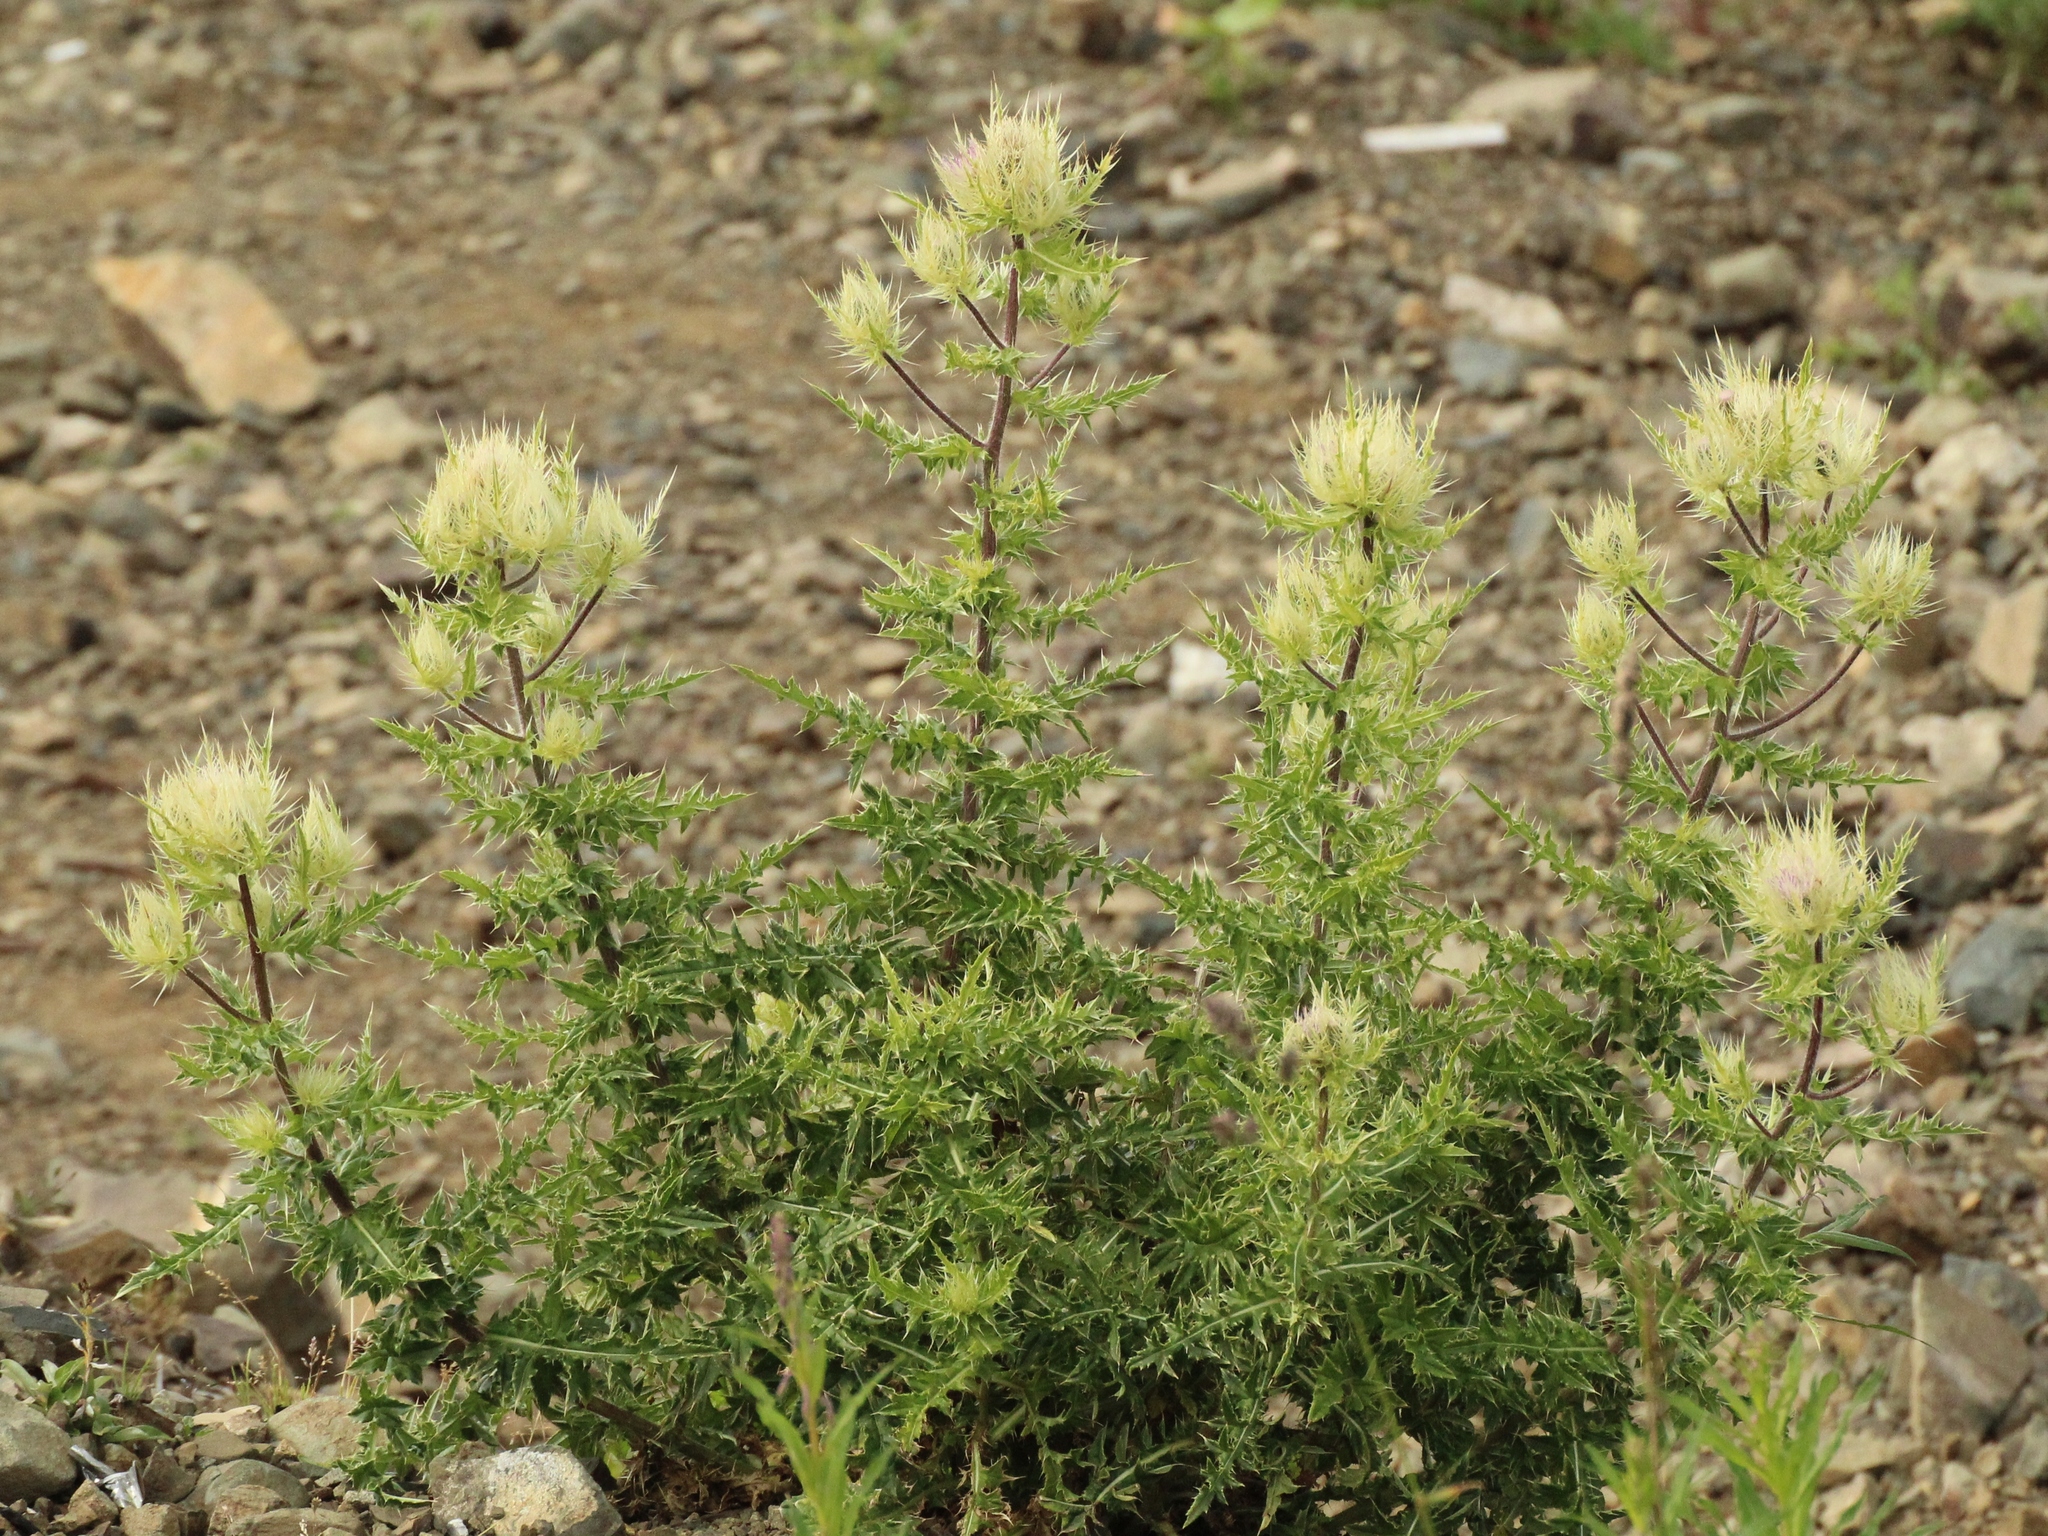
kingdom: Plantae
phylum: Tracheophyta
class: Magnoliopsida
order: Asterales
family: Asteraceae
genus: Cirsium
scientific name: Cirsium obvallatum
